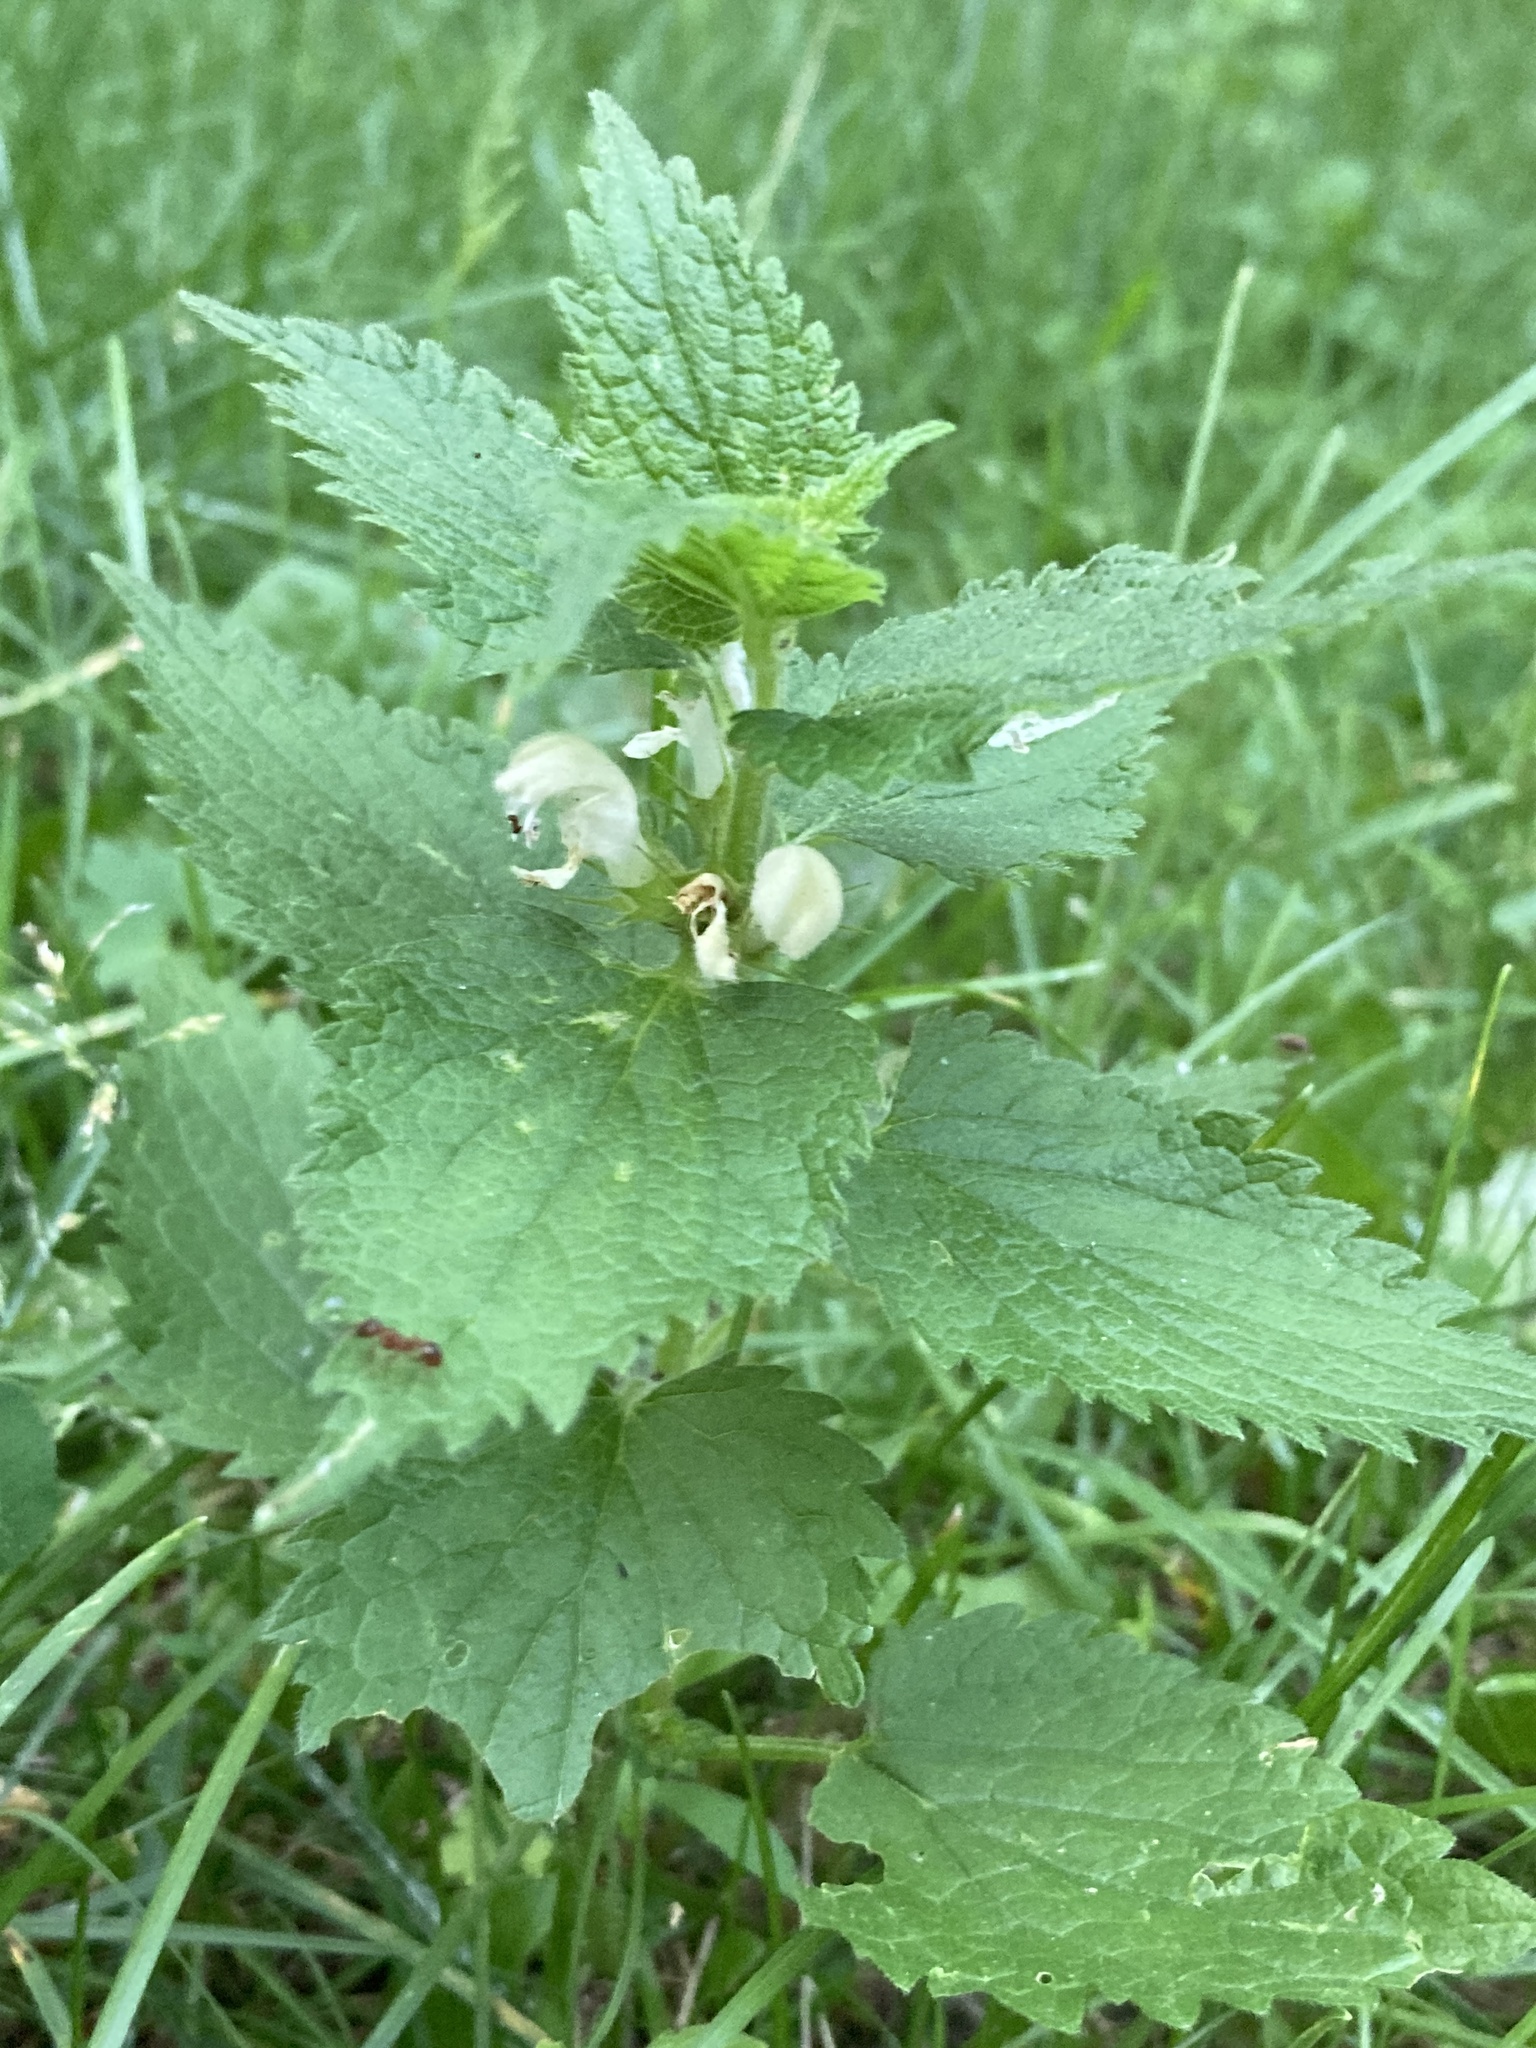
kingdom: Plantae
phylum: Tracheophyta
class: Magnoliopsida
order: Lamiales
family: Lamiaceae
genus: Lamium
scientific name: Lamium album
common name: White dead-nettle
